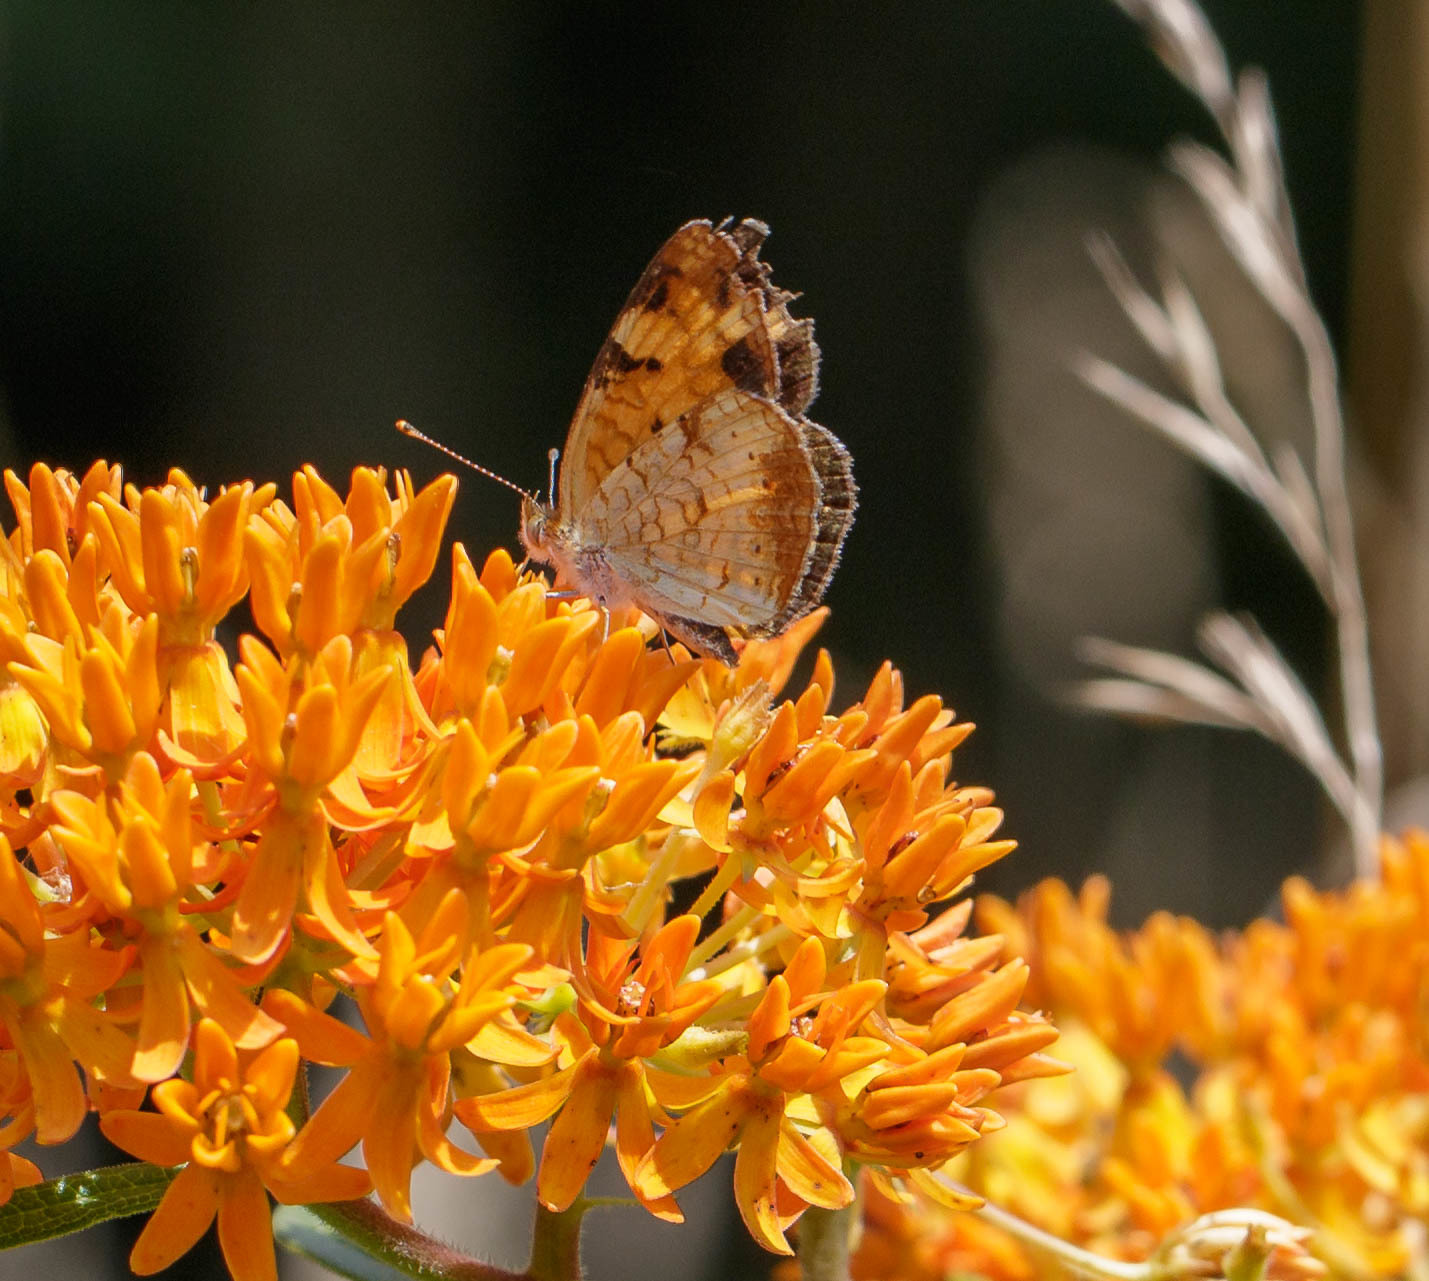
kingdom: Animalia
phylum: Arthropoda
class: Insecta
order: Lepidoptera
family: Nymphalidae
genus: Phyciodes
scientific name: Phyciodes tharos
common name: Pearl crescent
